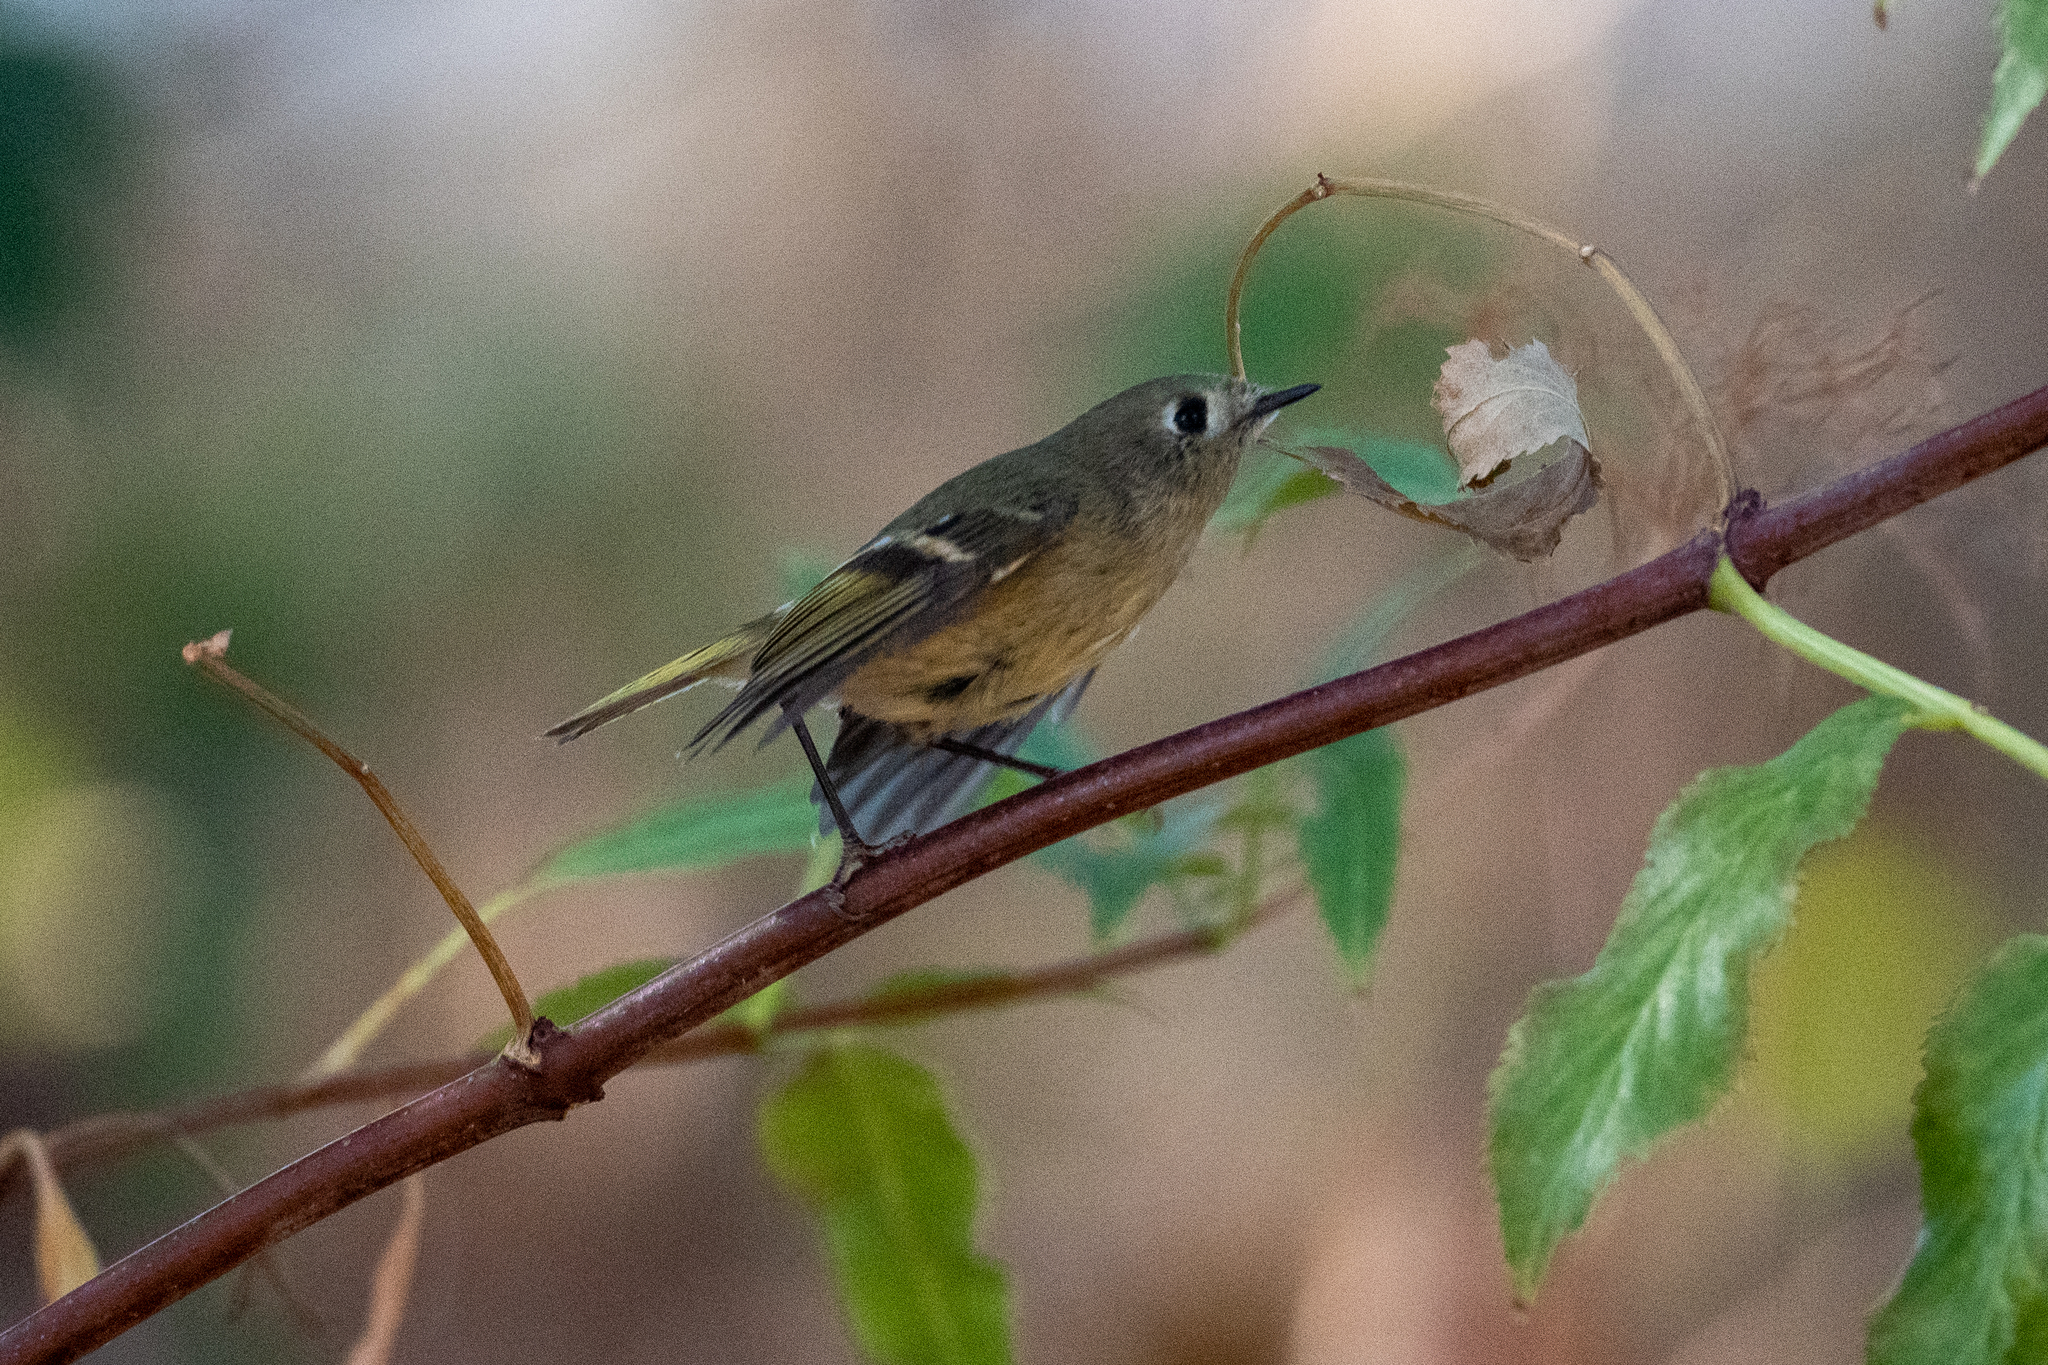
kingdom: Animalia
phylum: Chordata
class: Aves
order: Passeriformes
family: Regulidae
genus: Regulus
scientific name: Regulus calendula
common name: Ruby-crowned kinglet
